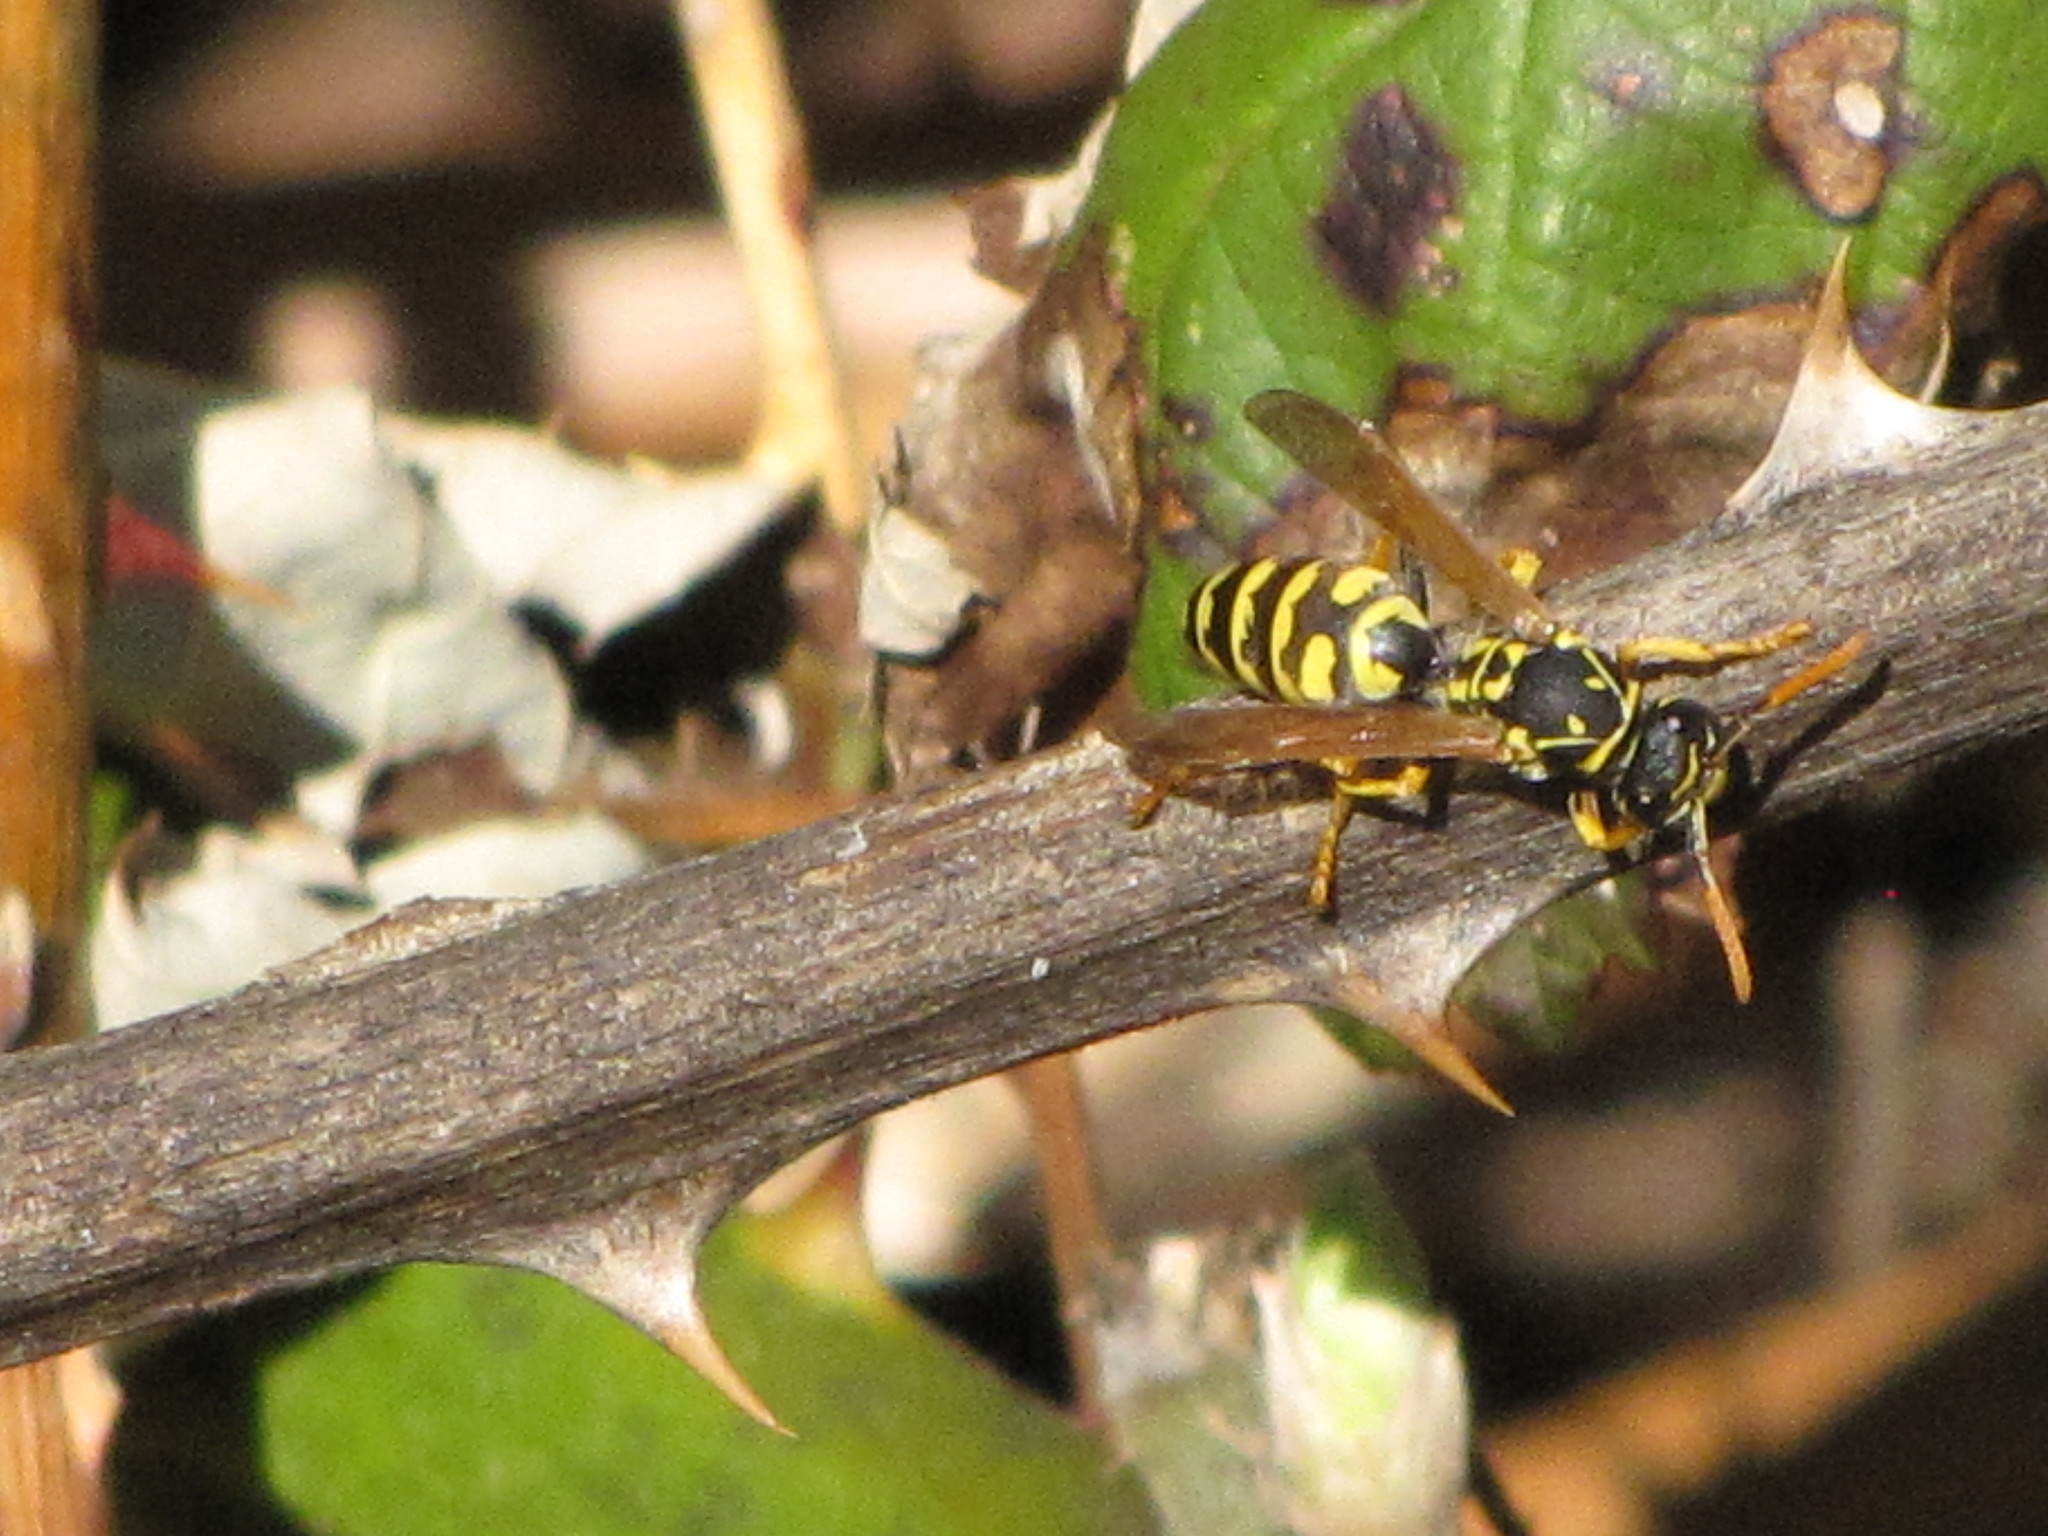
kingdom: Animalia
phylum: Arthropoda
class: Insecta
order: Hymenoptera
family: Eumenidae
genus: Polistes
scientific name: Polistes dominula
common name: Paper wasp
